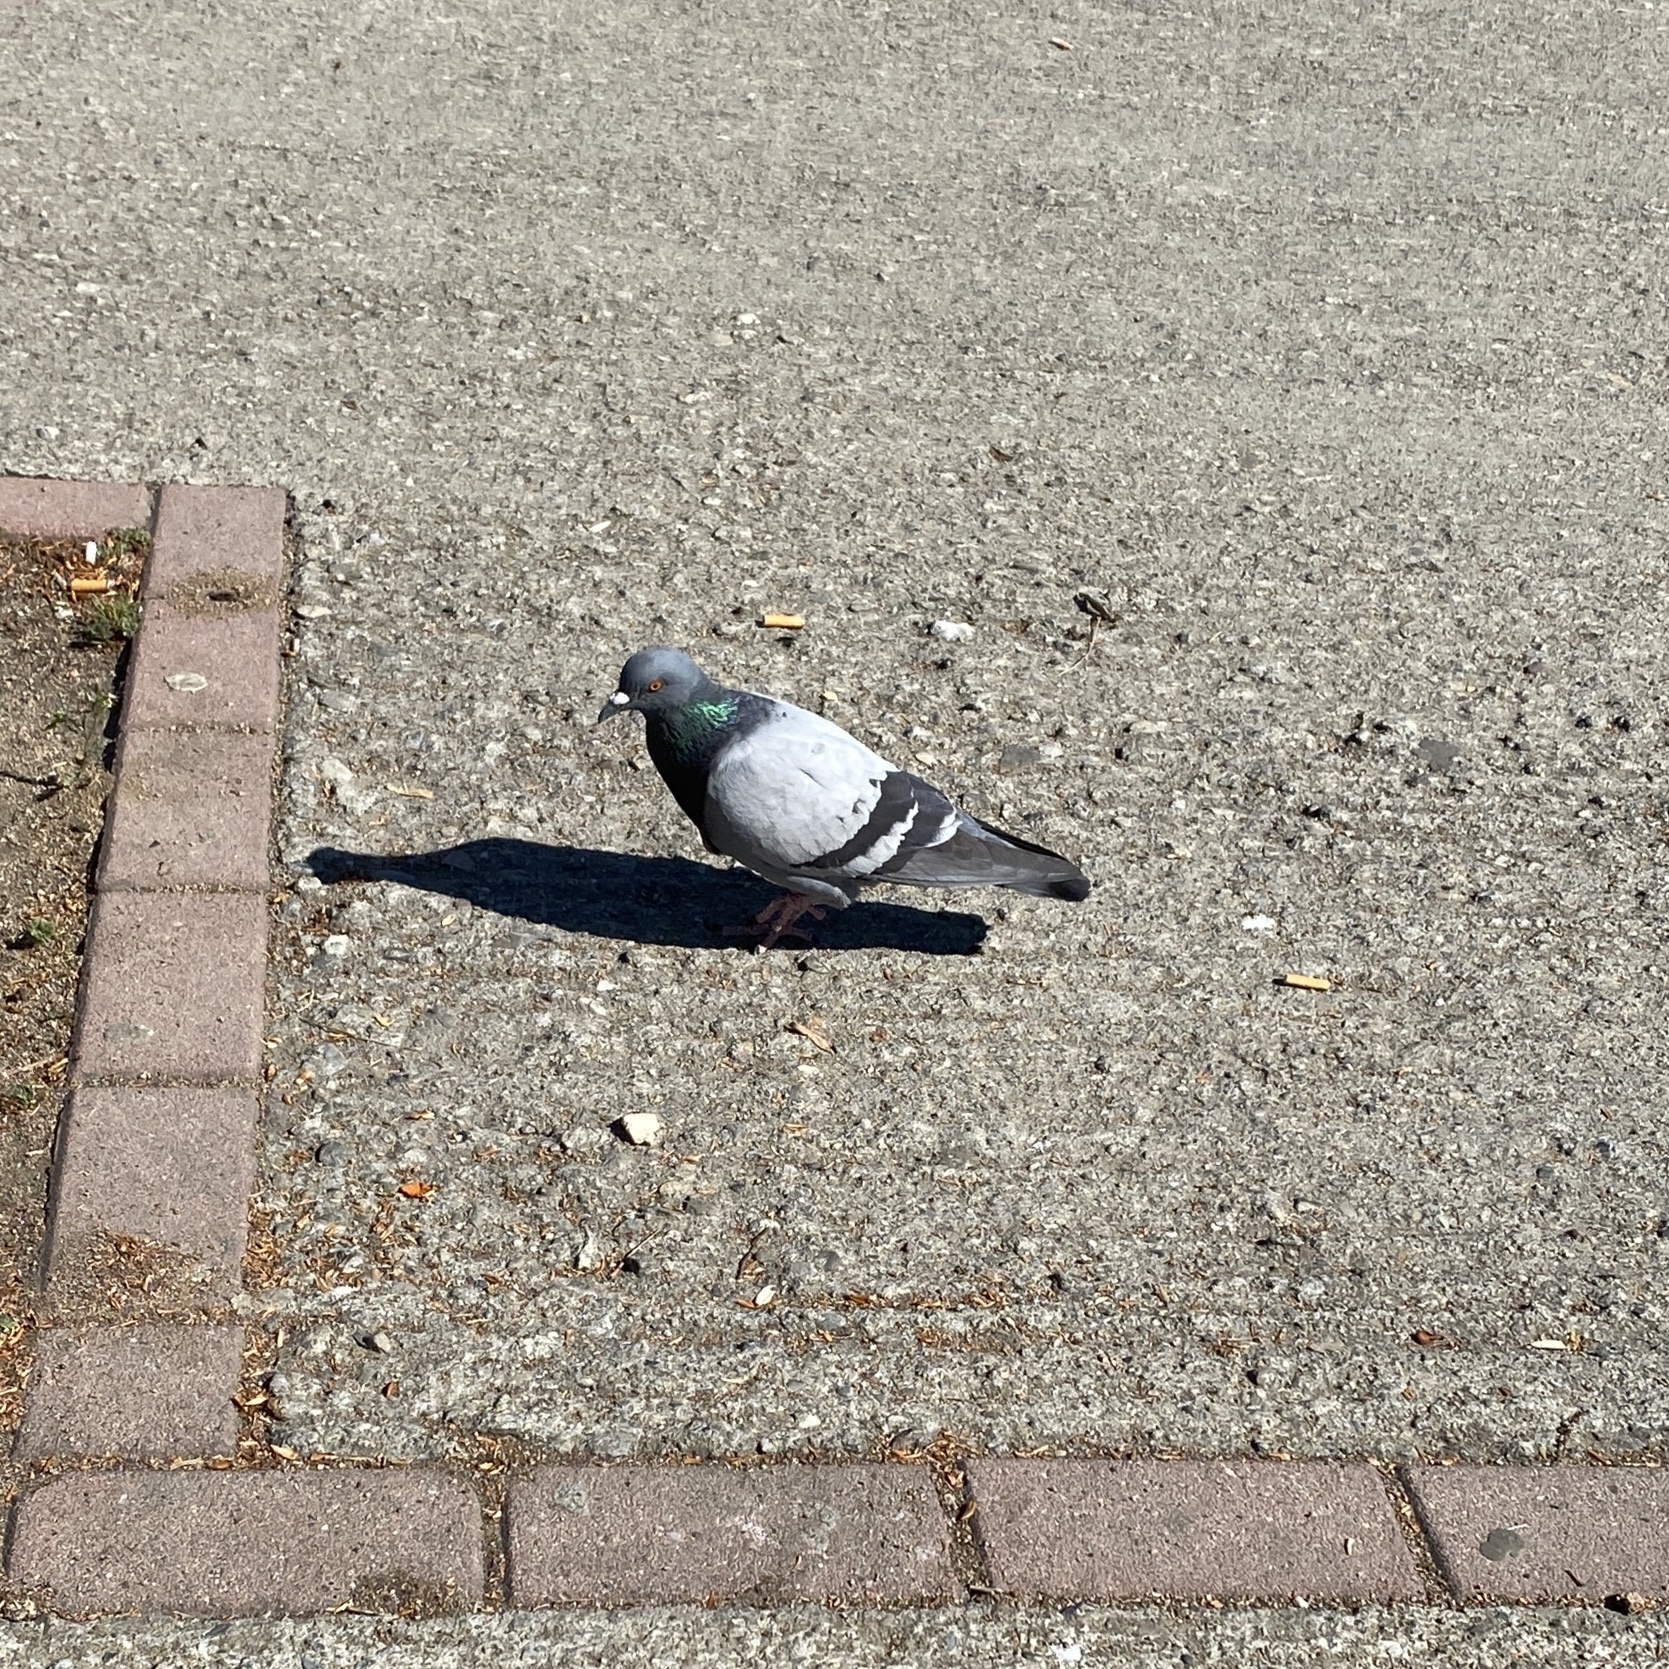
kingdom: Animalia
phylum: Chordata
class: Aves
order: Columbiformes
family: Columbidae
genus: Columba
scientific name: Columba livia
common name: Rock pigeon
